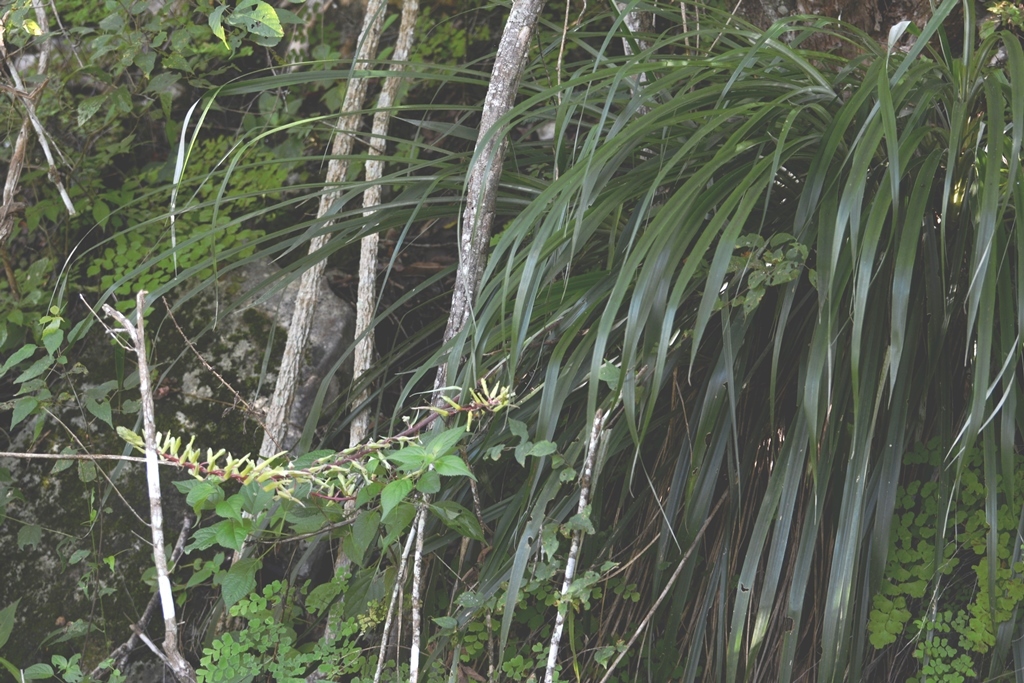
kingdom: Plantae
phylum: Tracheophyta
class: Liliopsida
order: Poales
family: Bromeliaceae
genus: Pitcairnia
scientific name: Pitcairnia breedlovei
